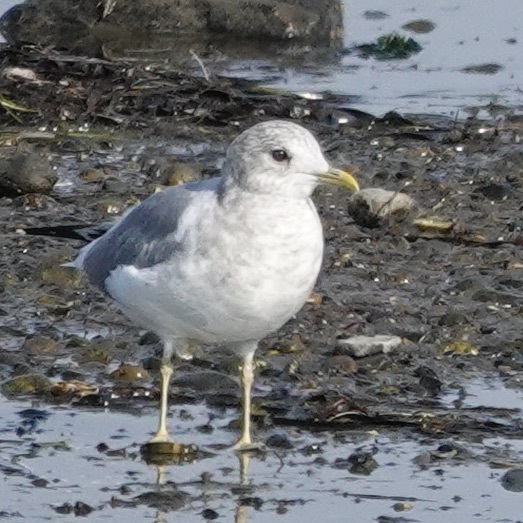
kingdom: Animalia
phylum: Chordata
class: Aves
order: Charadriiformes
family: Laridae
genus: Larus
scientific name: Larus brachyrhynchus
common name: Short-billed gull
